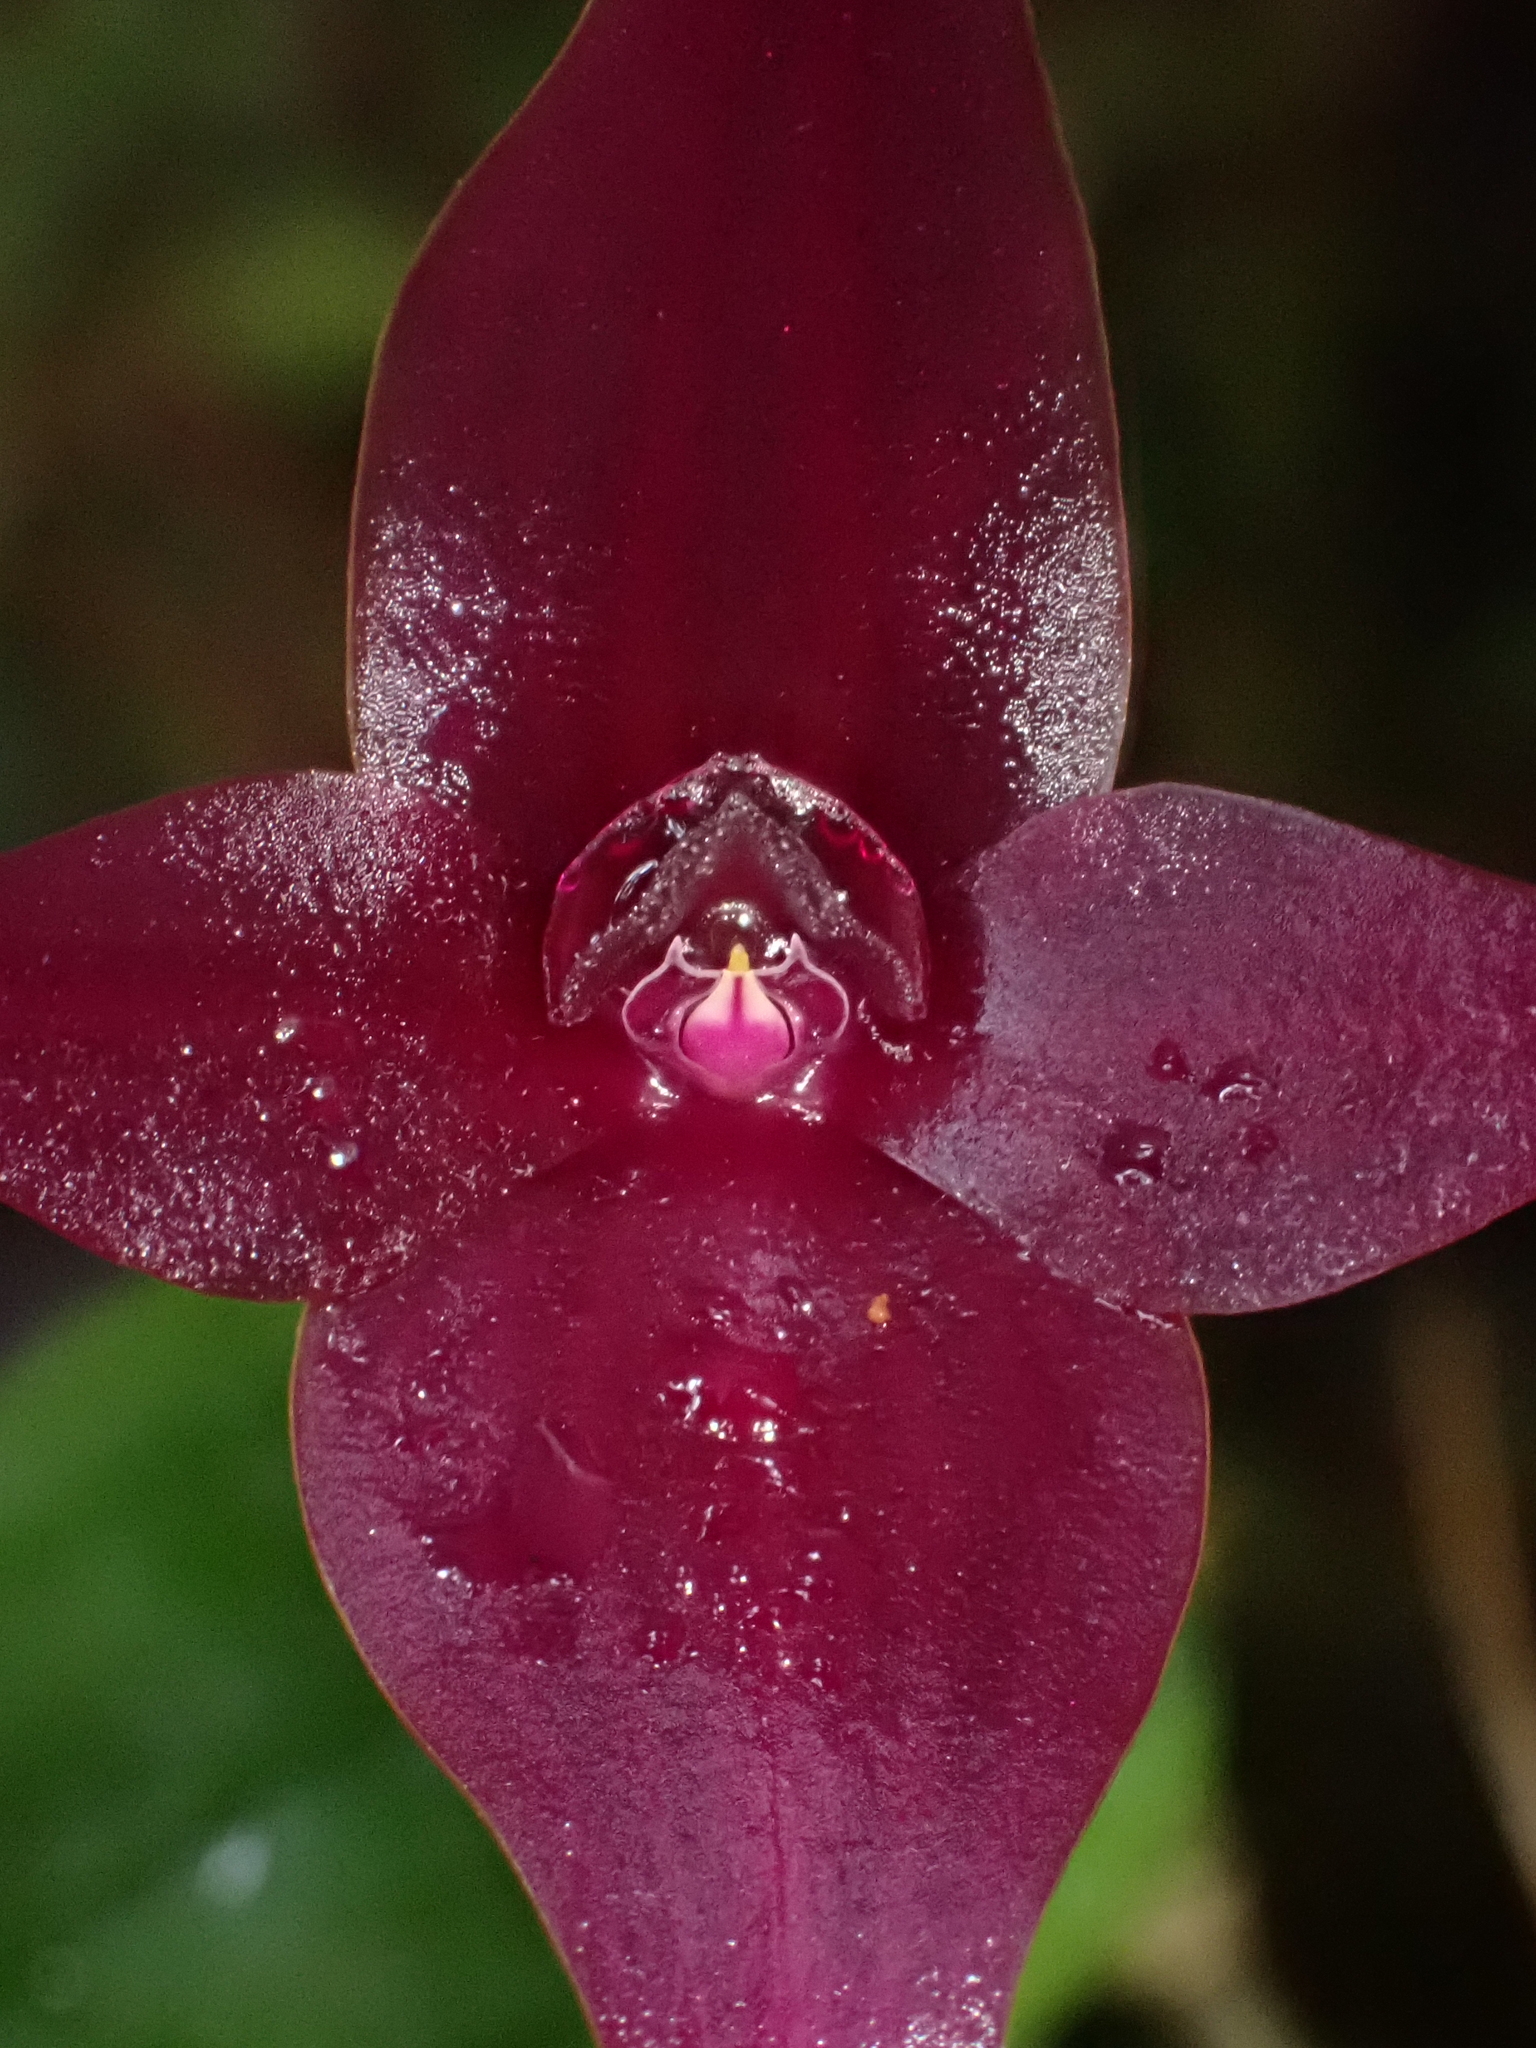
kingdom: Plantae
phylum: Tracheophyta
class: Liliopsida
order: Asparagales
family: Orchidaceae
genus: Brachionidium
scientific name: Brachionidium imperiale
